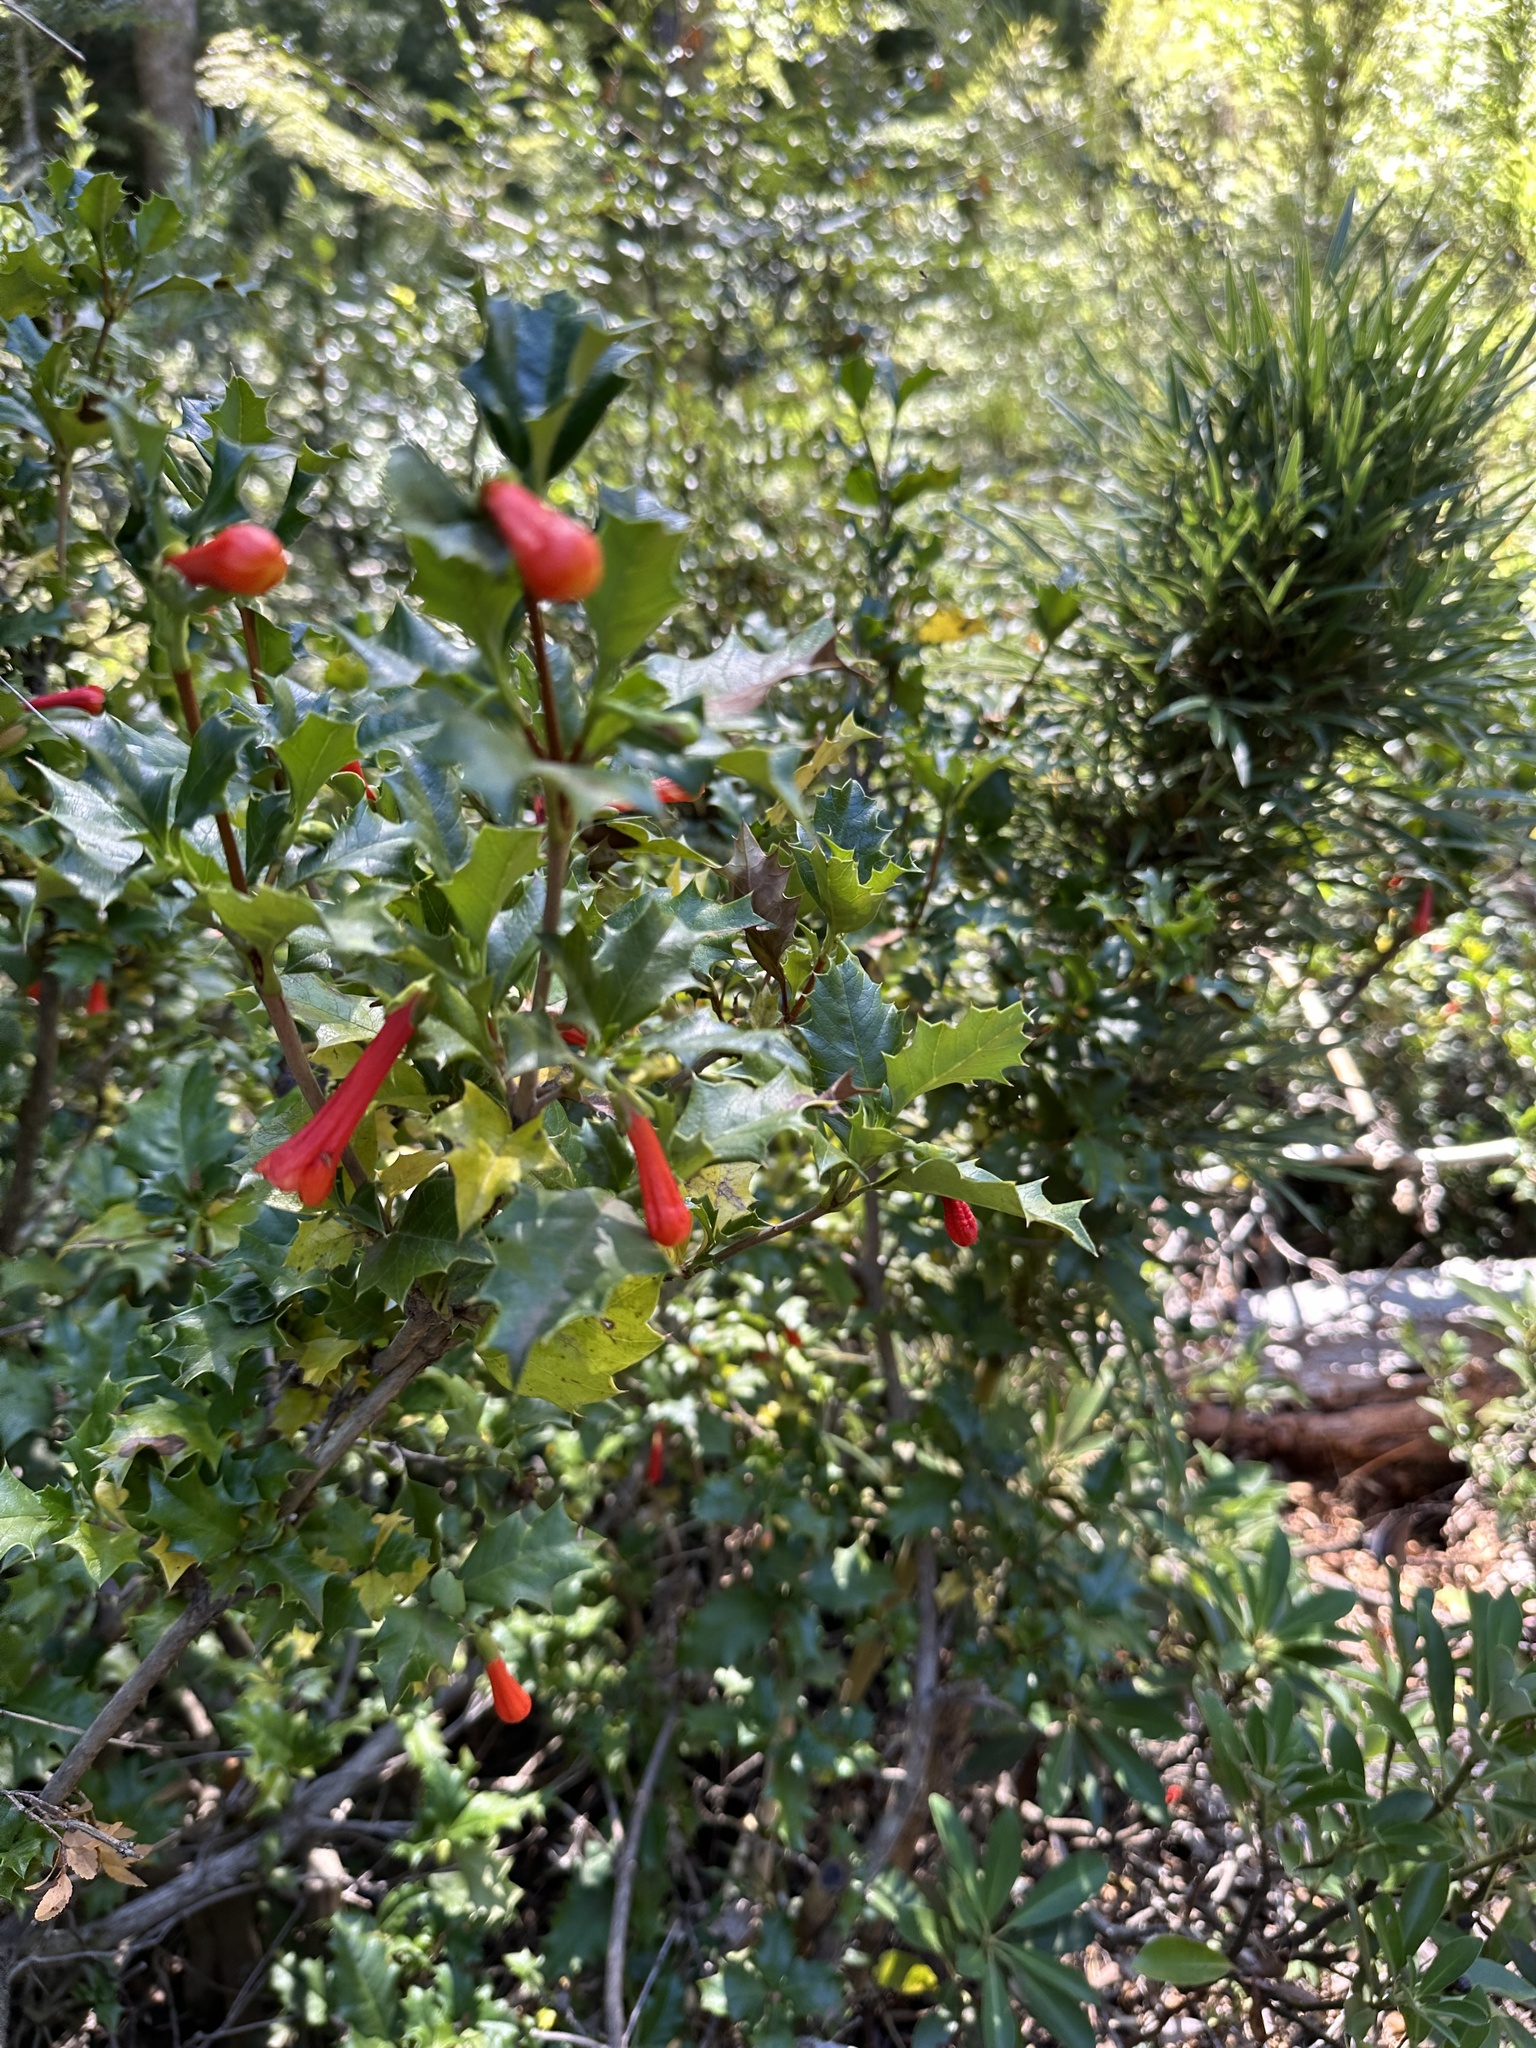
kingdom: Plantae
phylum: Tracheophyta
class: Magnoliopsida
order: Bruniales
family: Columelliaceae
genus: Desfontainia
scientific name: Desfontainia fulgens
